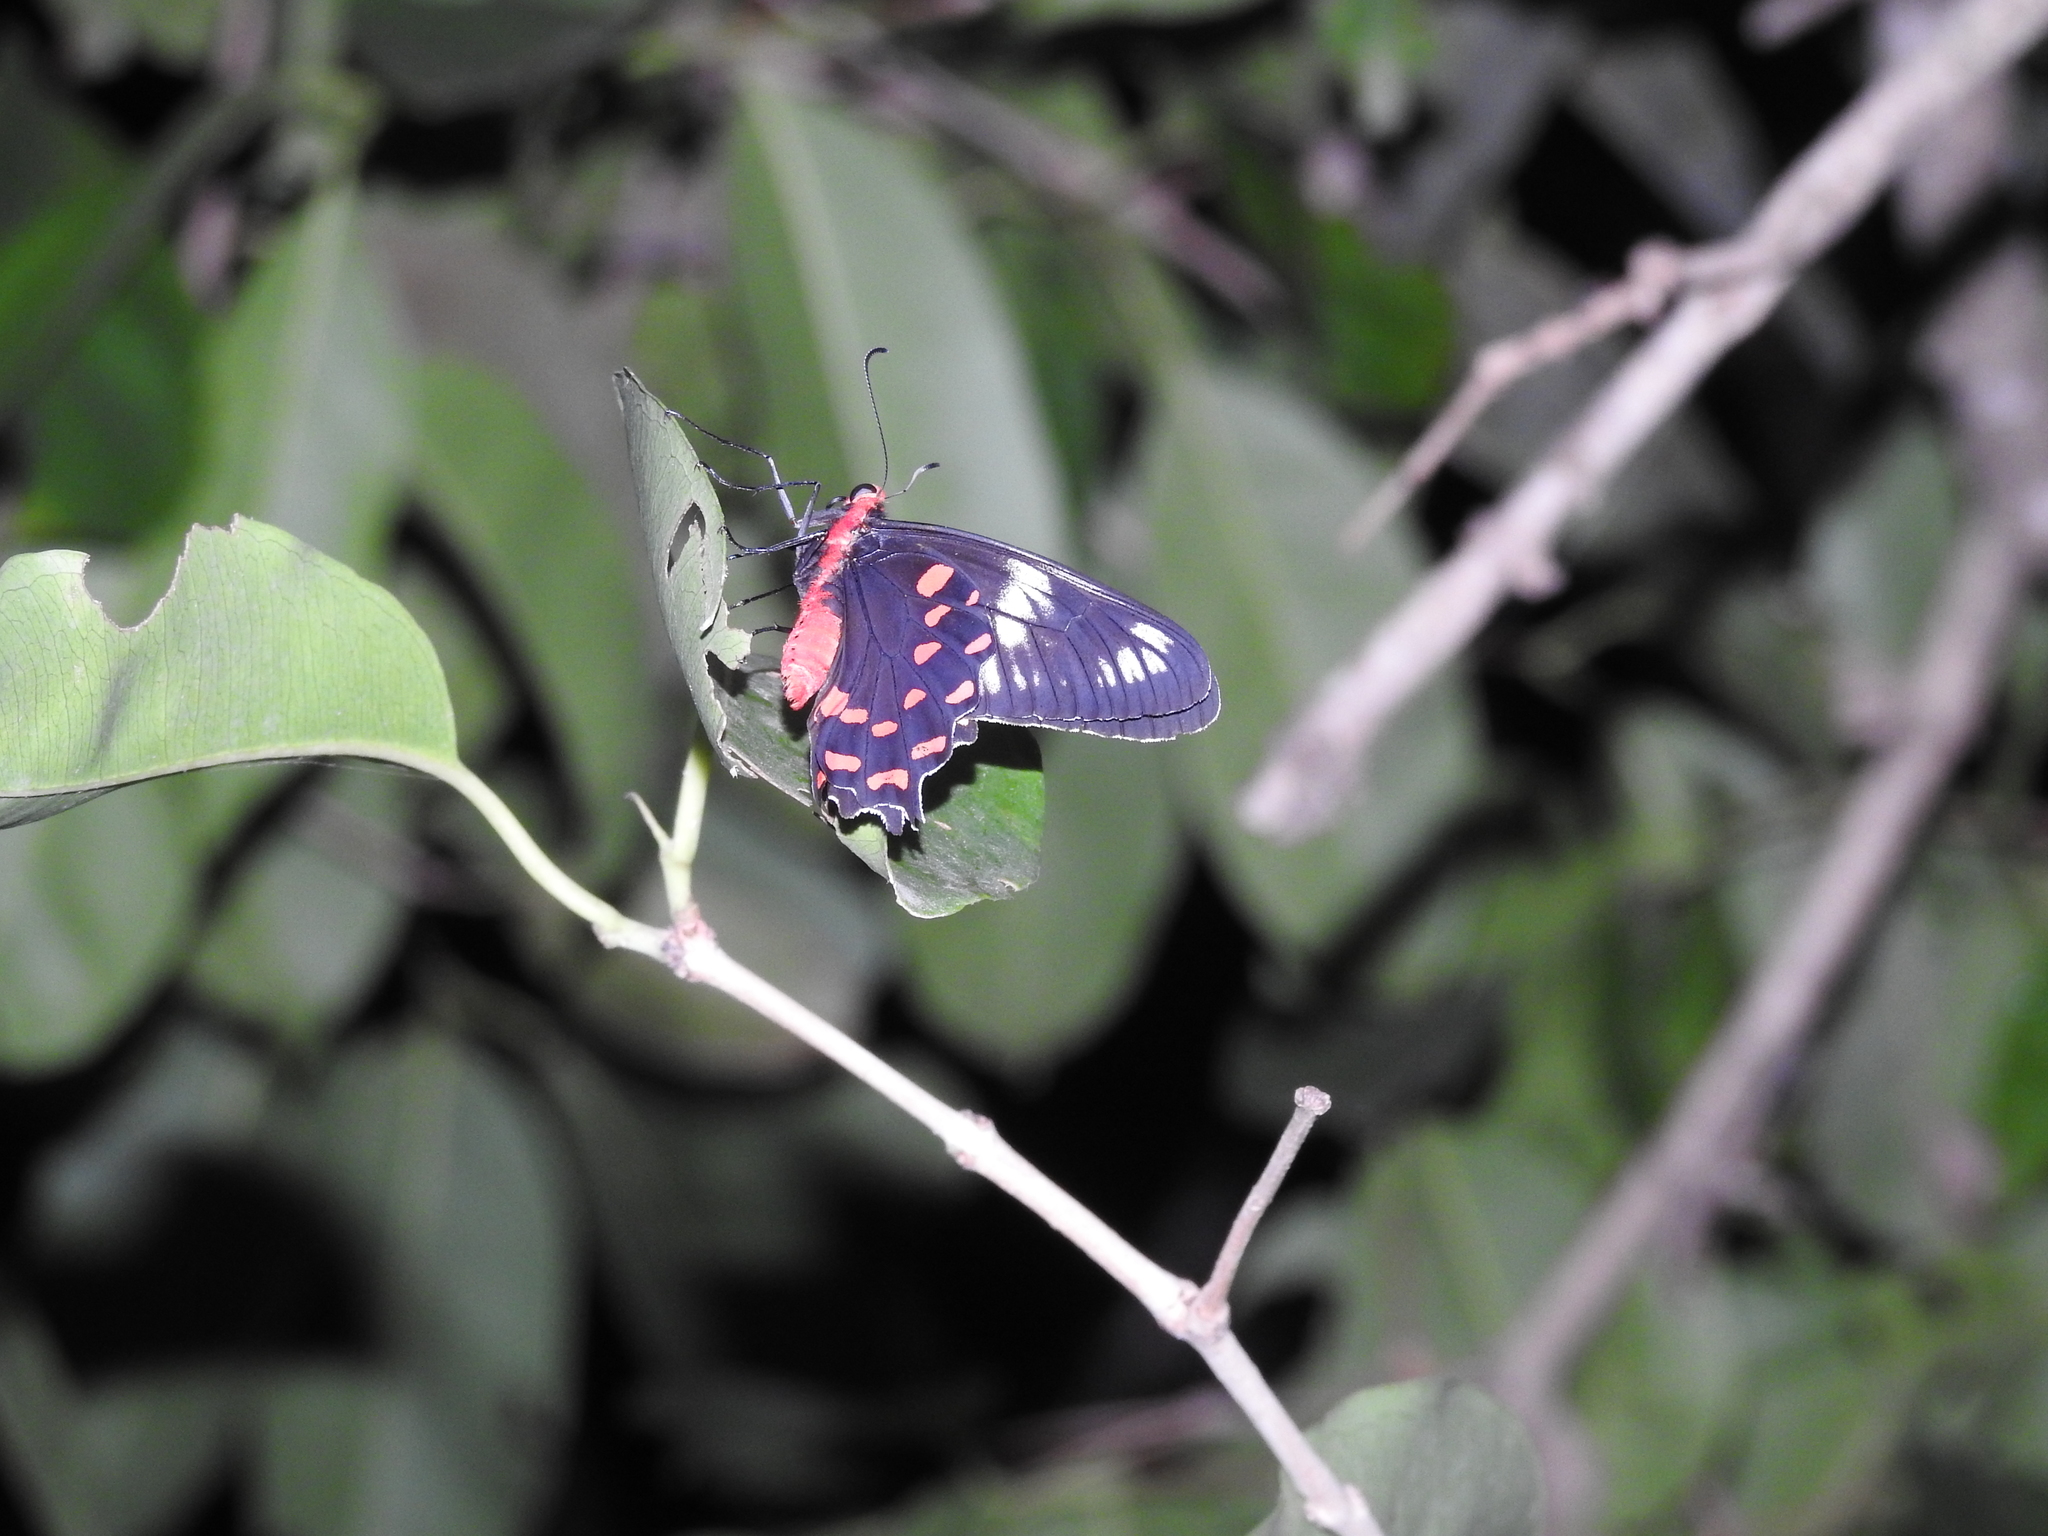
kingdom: Animalia
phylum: Arthropoda
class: Insecta
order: Lepidoptera
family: Papilionidae
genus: Pachliopta
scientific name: Pachliopta hector
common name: Crimson rose
